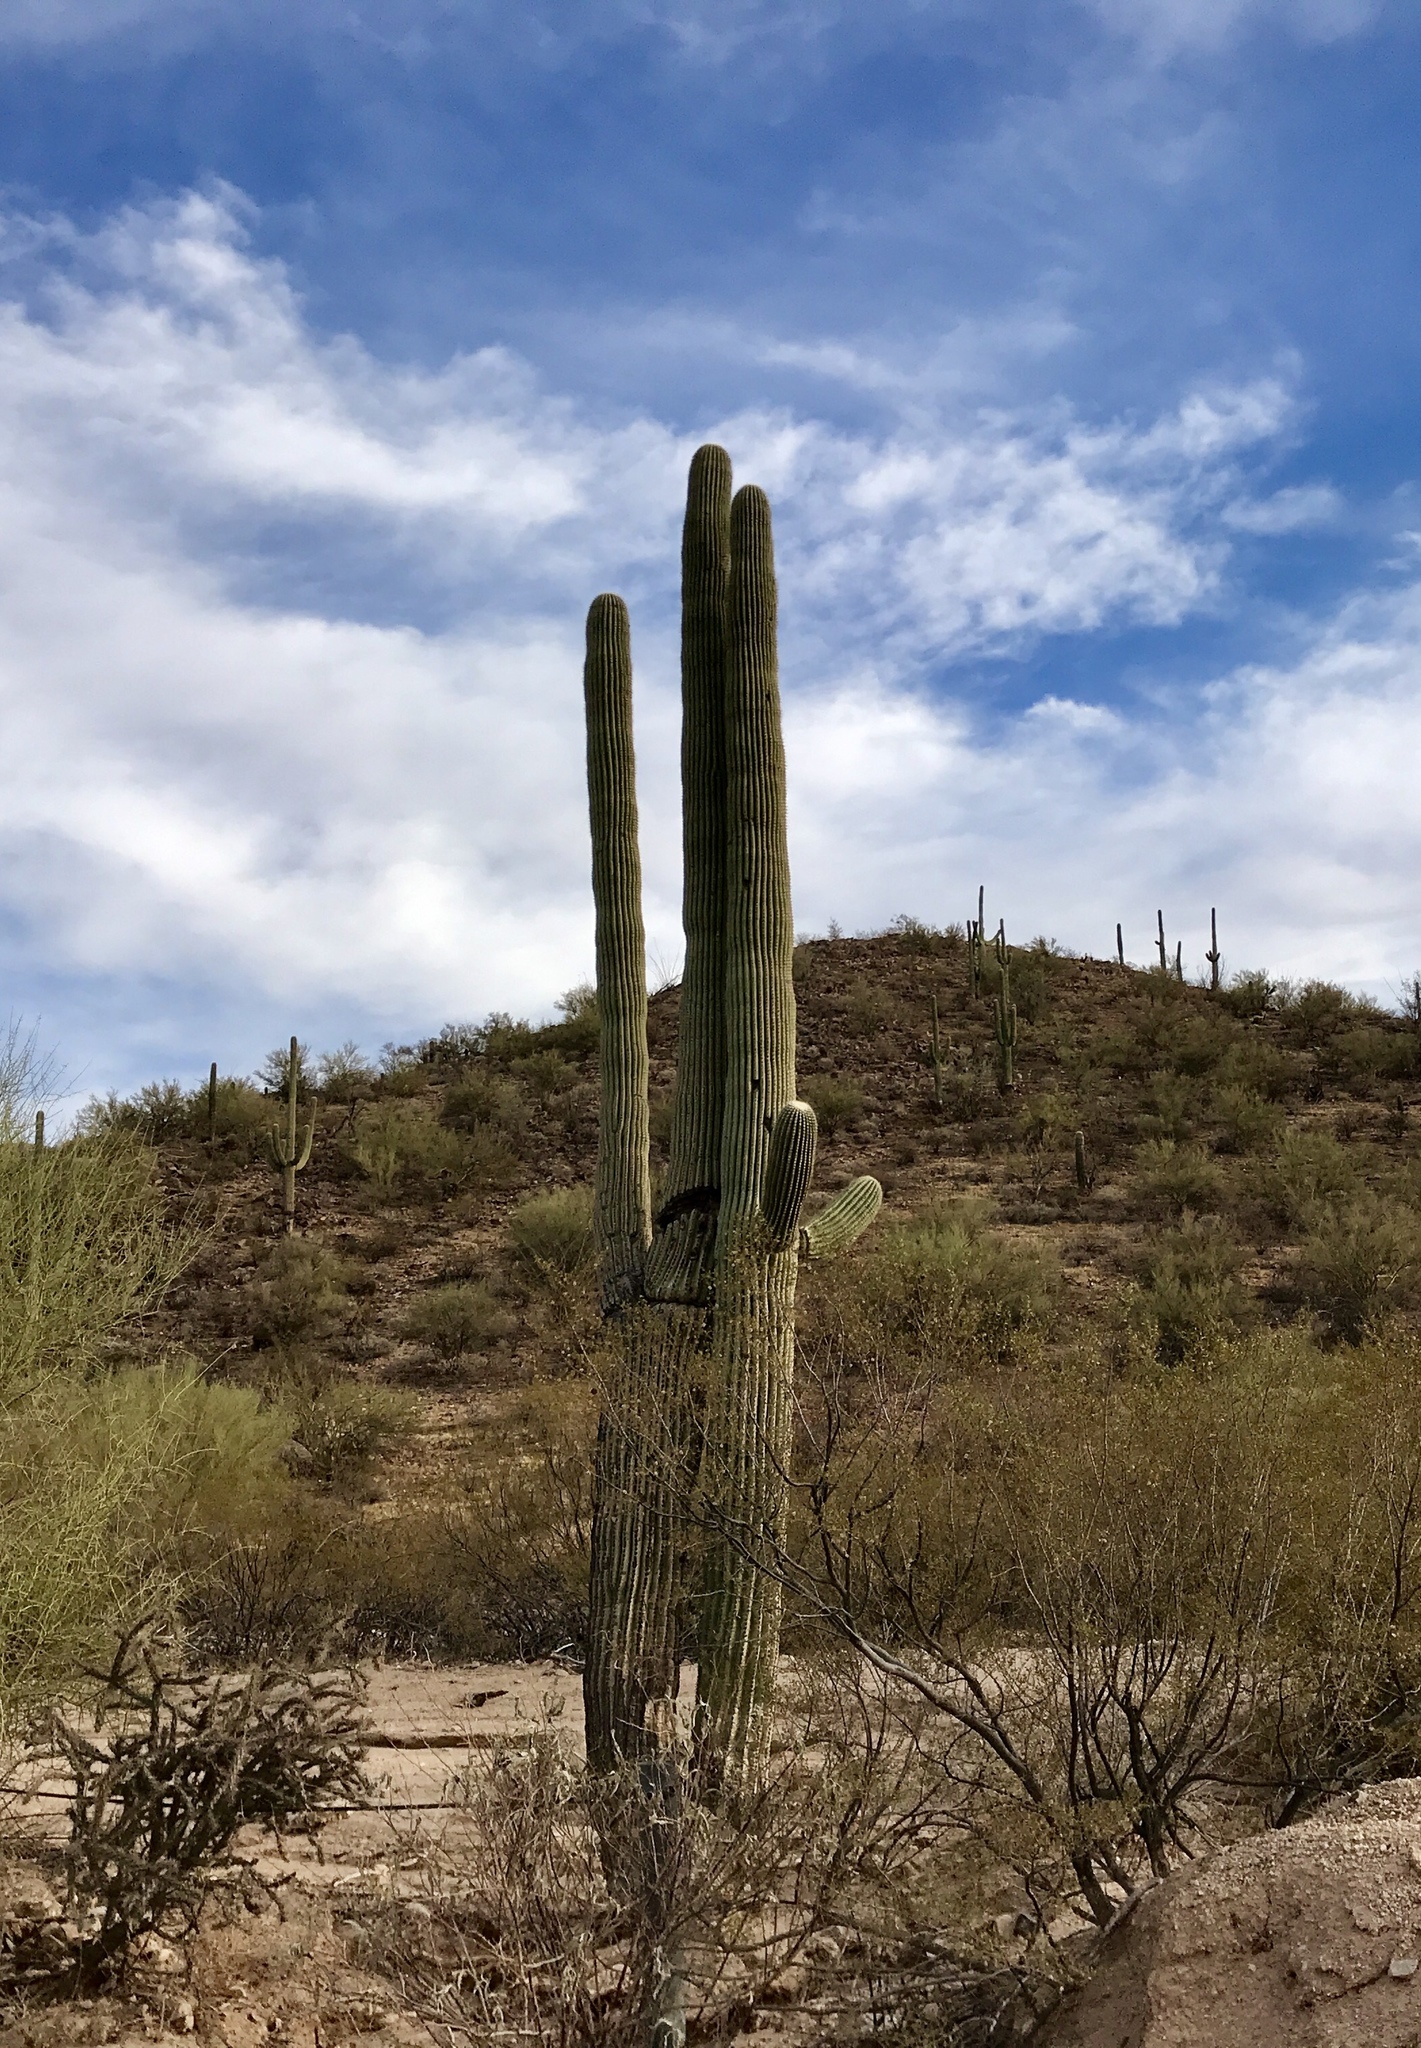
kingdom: Plantae
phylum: Tracheophyta
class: Magnoliopsida
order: Caryophyllales
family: Cactaceae
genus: Carnegiea
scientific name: Carnegiea gigantea
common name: Saguaro
